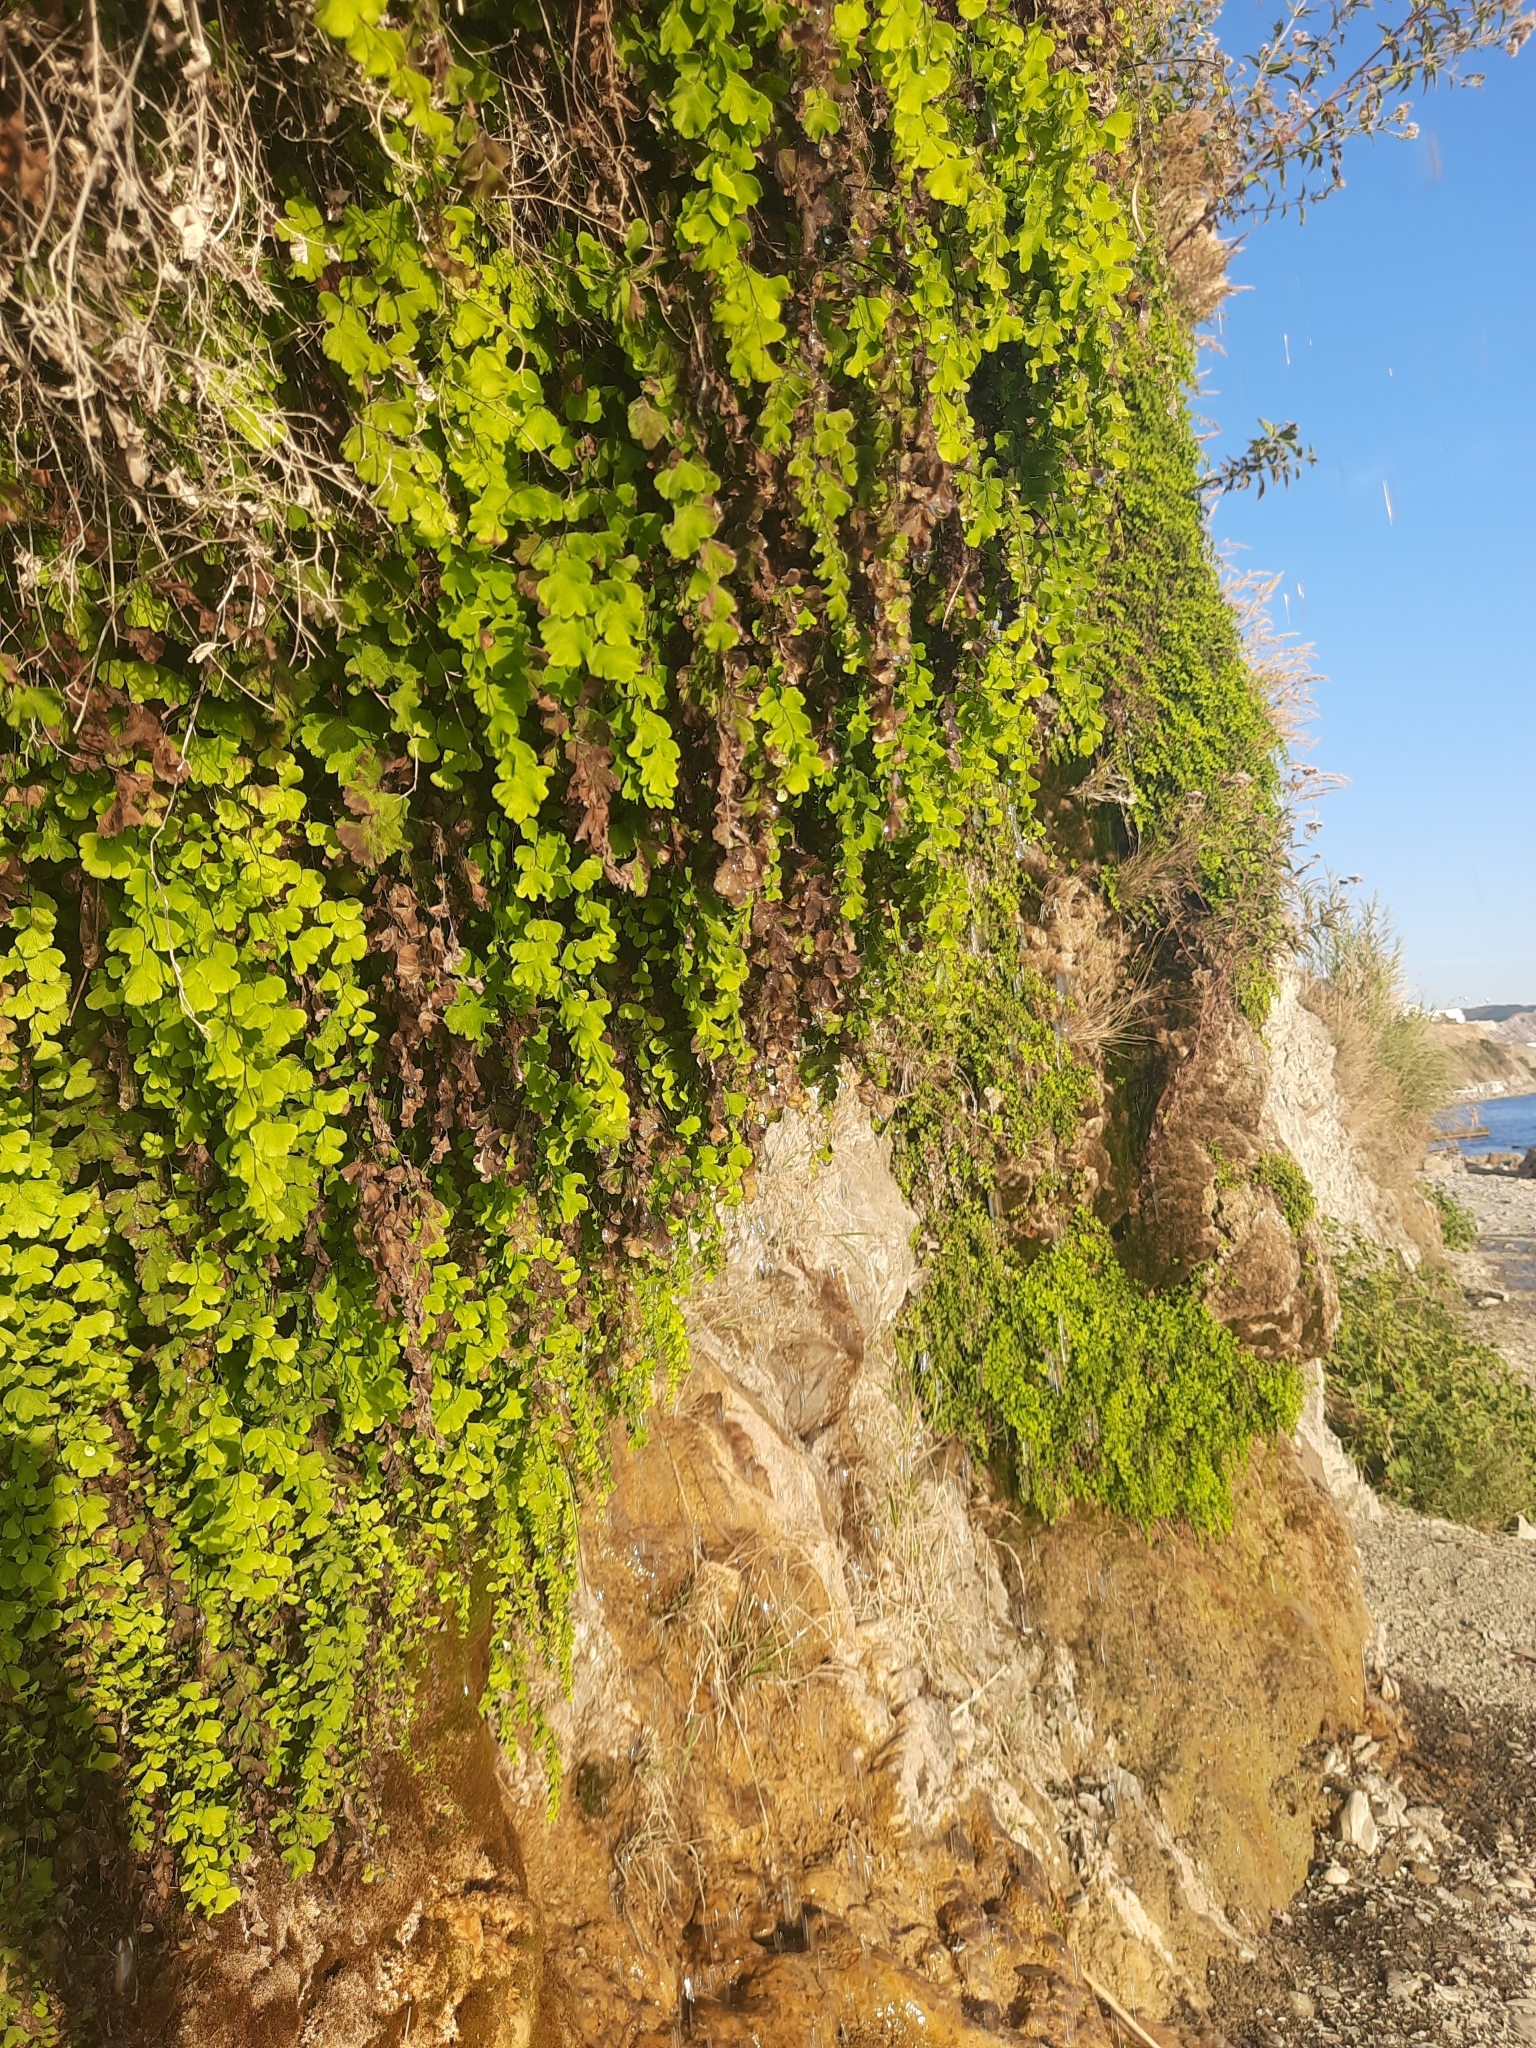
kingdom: Plantae
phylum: Tracheophyta
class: Polypodiopsida
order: Polypodiales
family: Pteridaceae
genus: Adiantum
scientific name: Adiantum capillus-veneris
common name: Maidenhair fern
